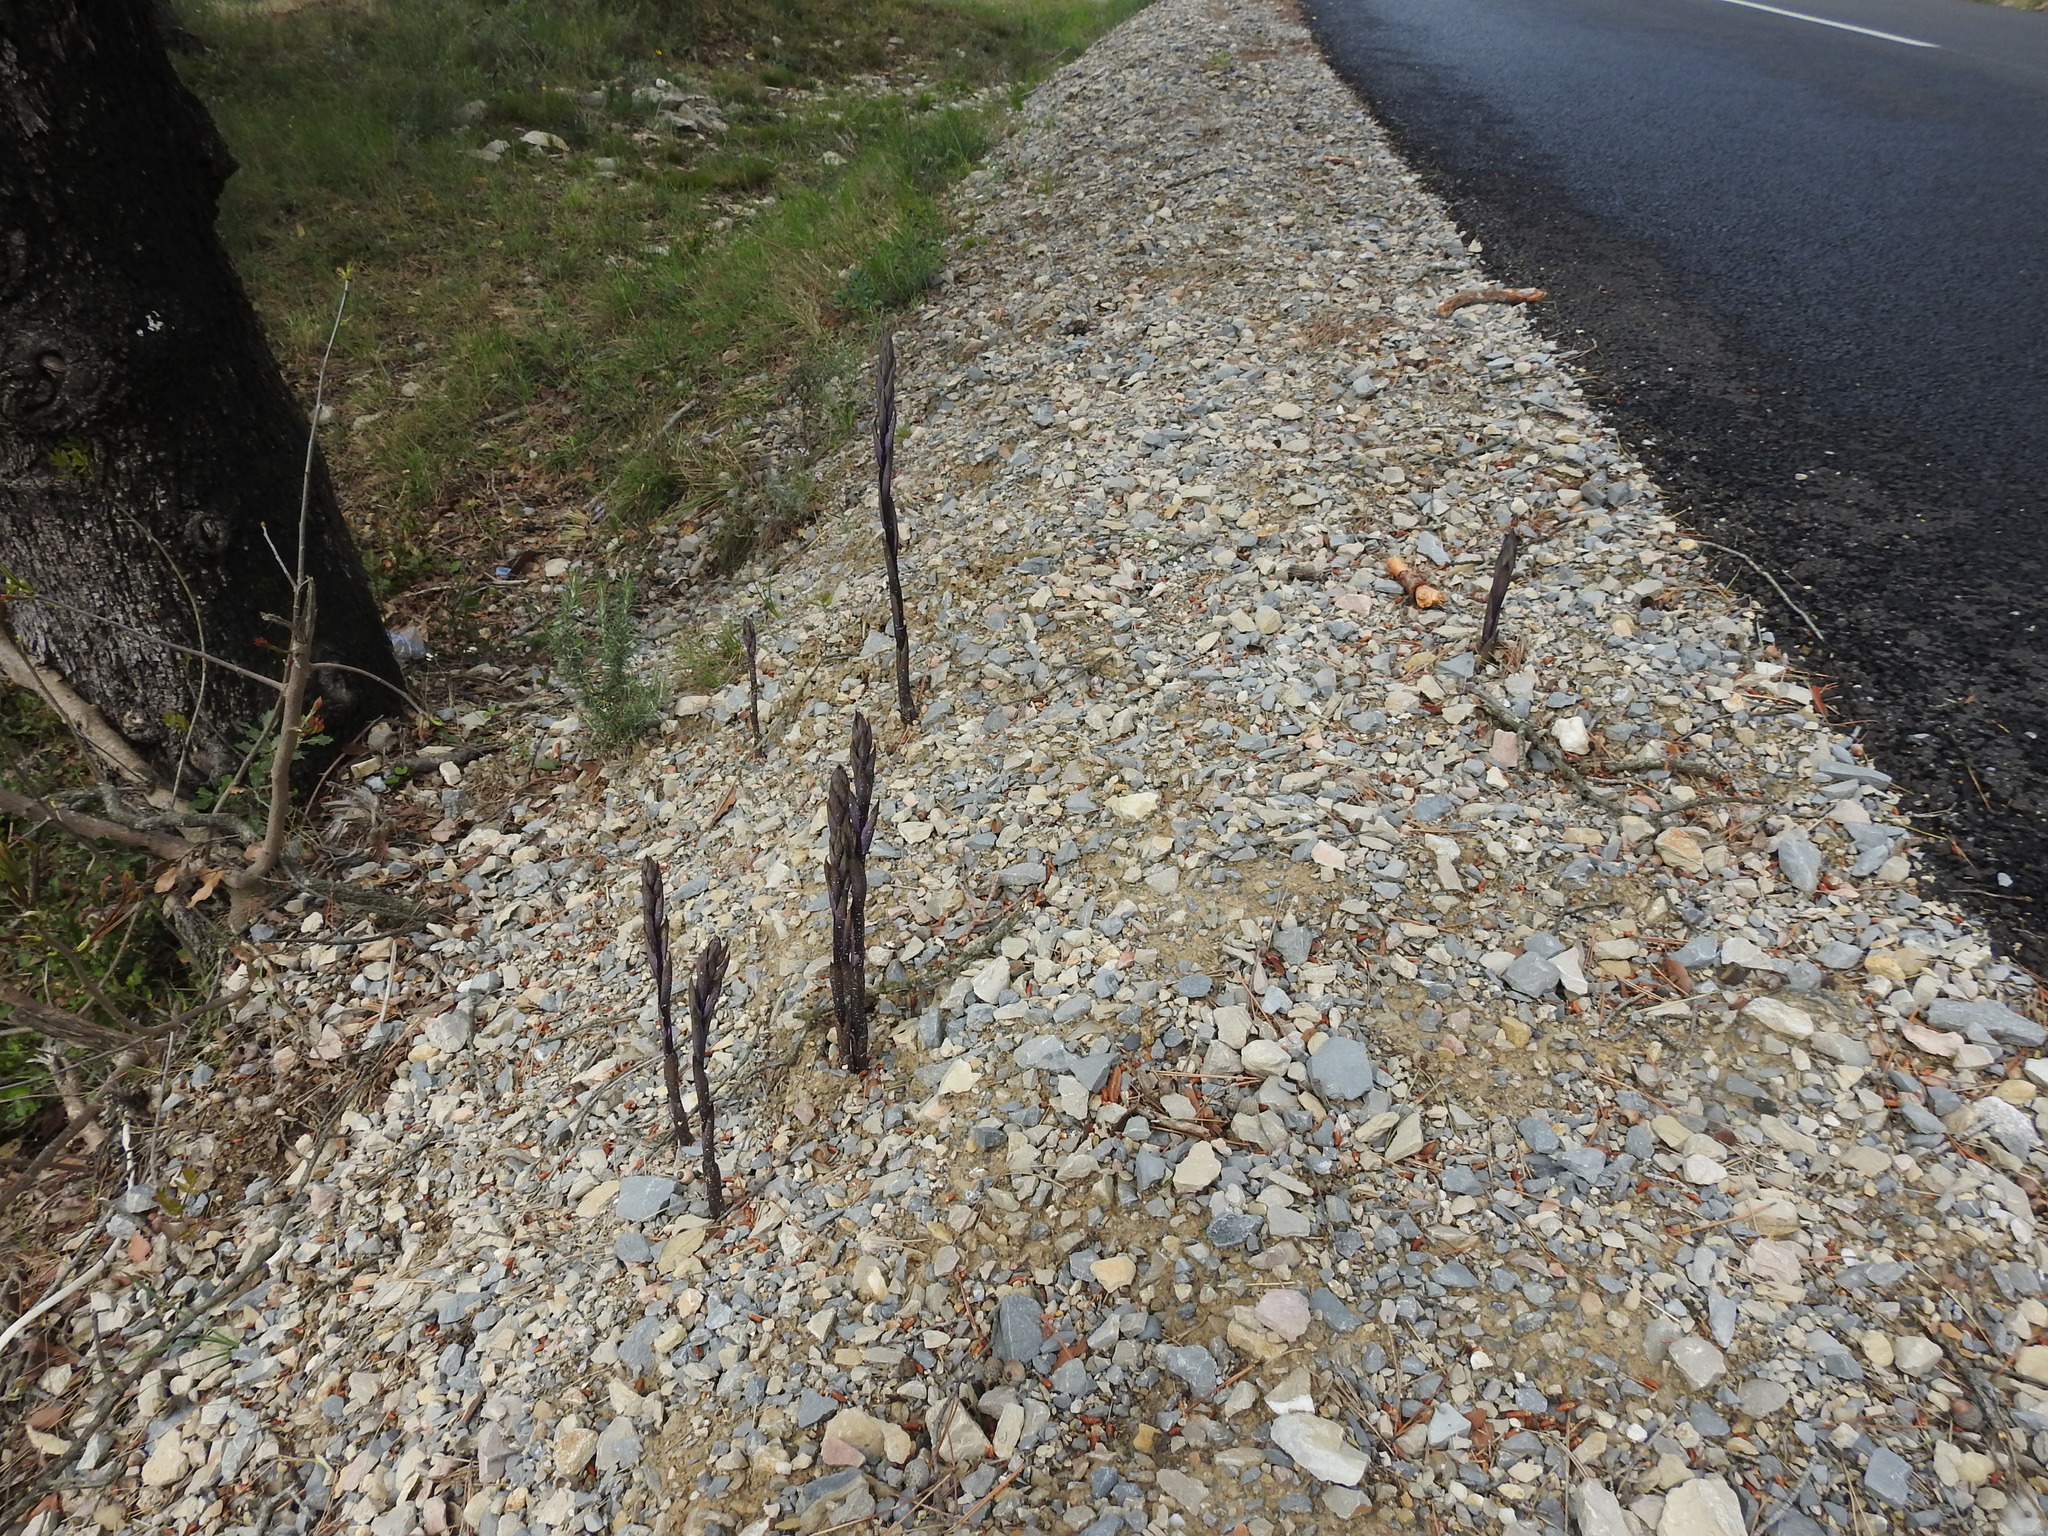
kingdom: Plantae
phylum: Tracheophyta
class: Liliopsida
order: Asparagales
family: Orchidaceae
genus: Limodorum
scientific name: Limodorum abortivum
